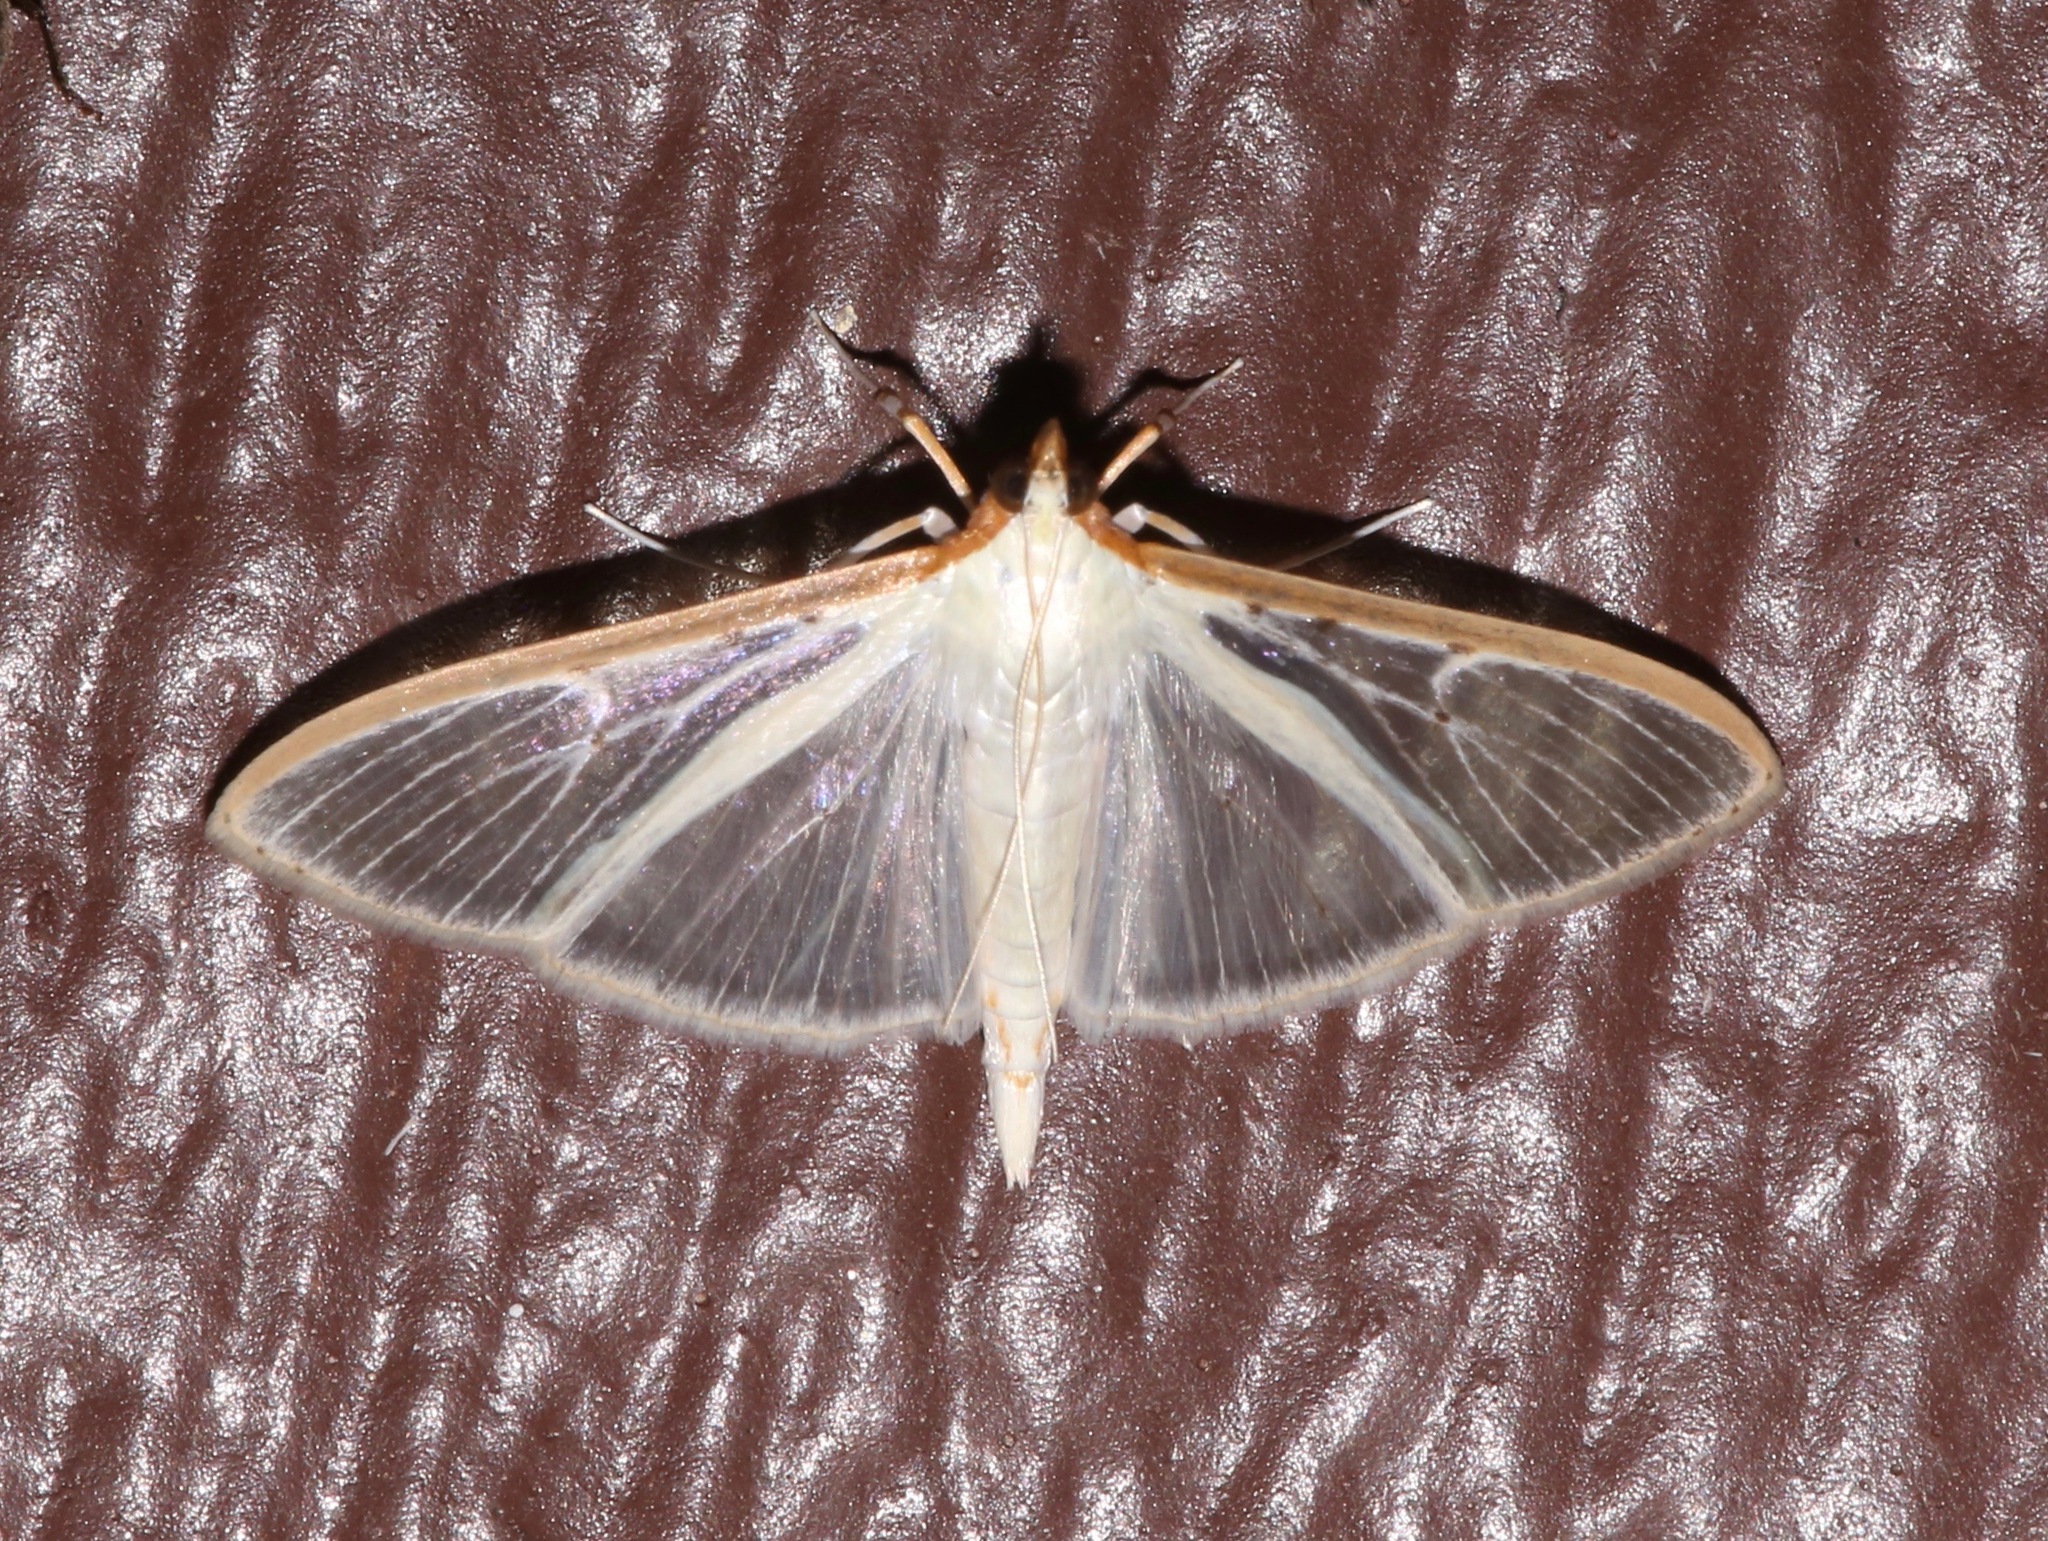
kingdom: Animalia
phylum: Arthropoda
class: Insecta
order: Lepidoptera
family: Crambidae
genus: Palpita
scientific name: Palpita quadristigmalis
